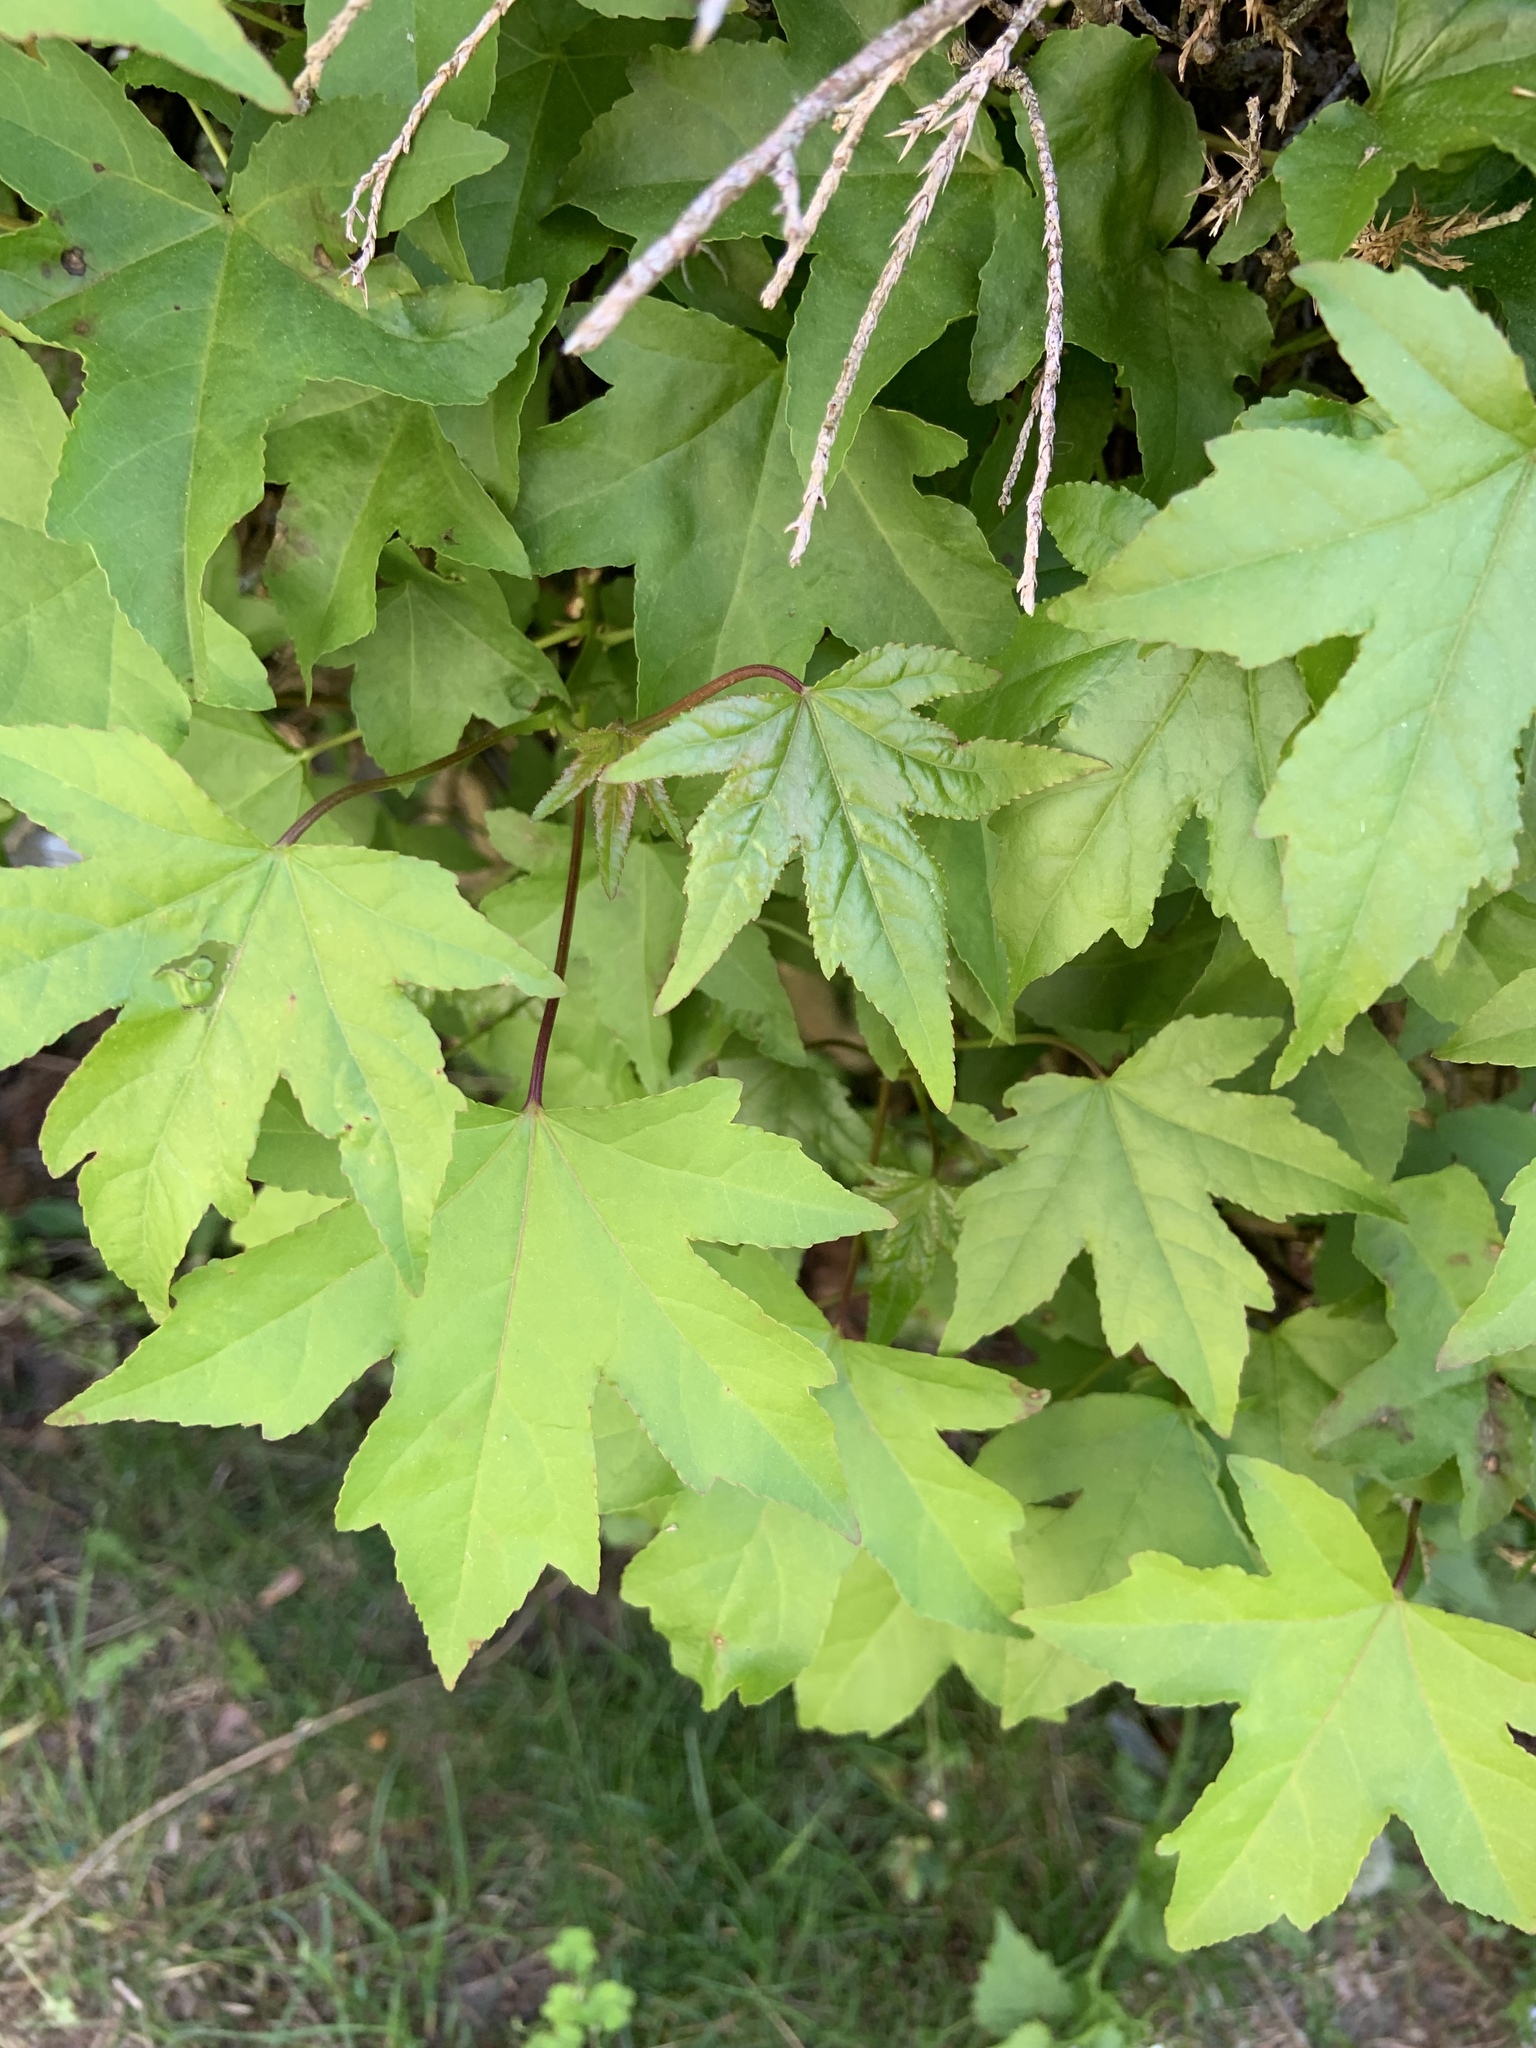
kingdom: Plantae
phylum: Tracheophyta
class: Magnoliopsida
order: Saxifragales
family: Altingiaceae
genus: Liquidambar
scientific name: Liquidambar styraciflua
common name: Sweet gum
